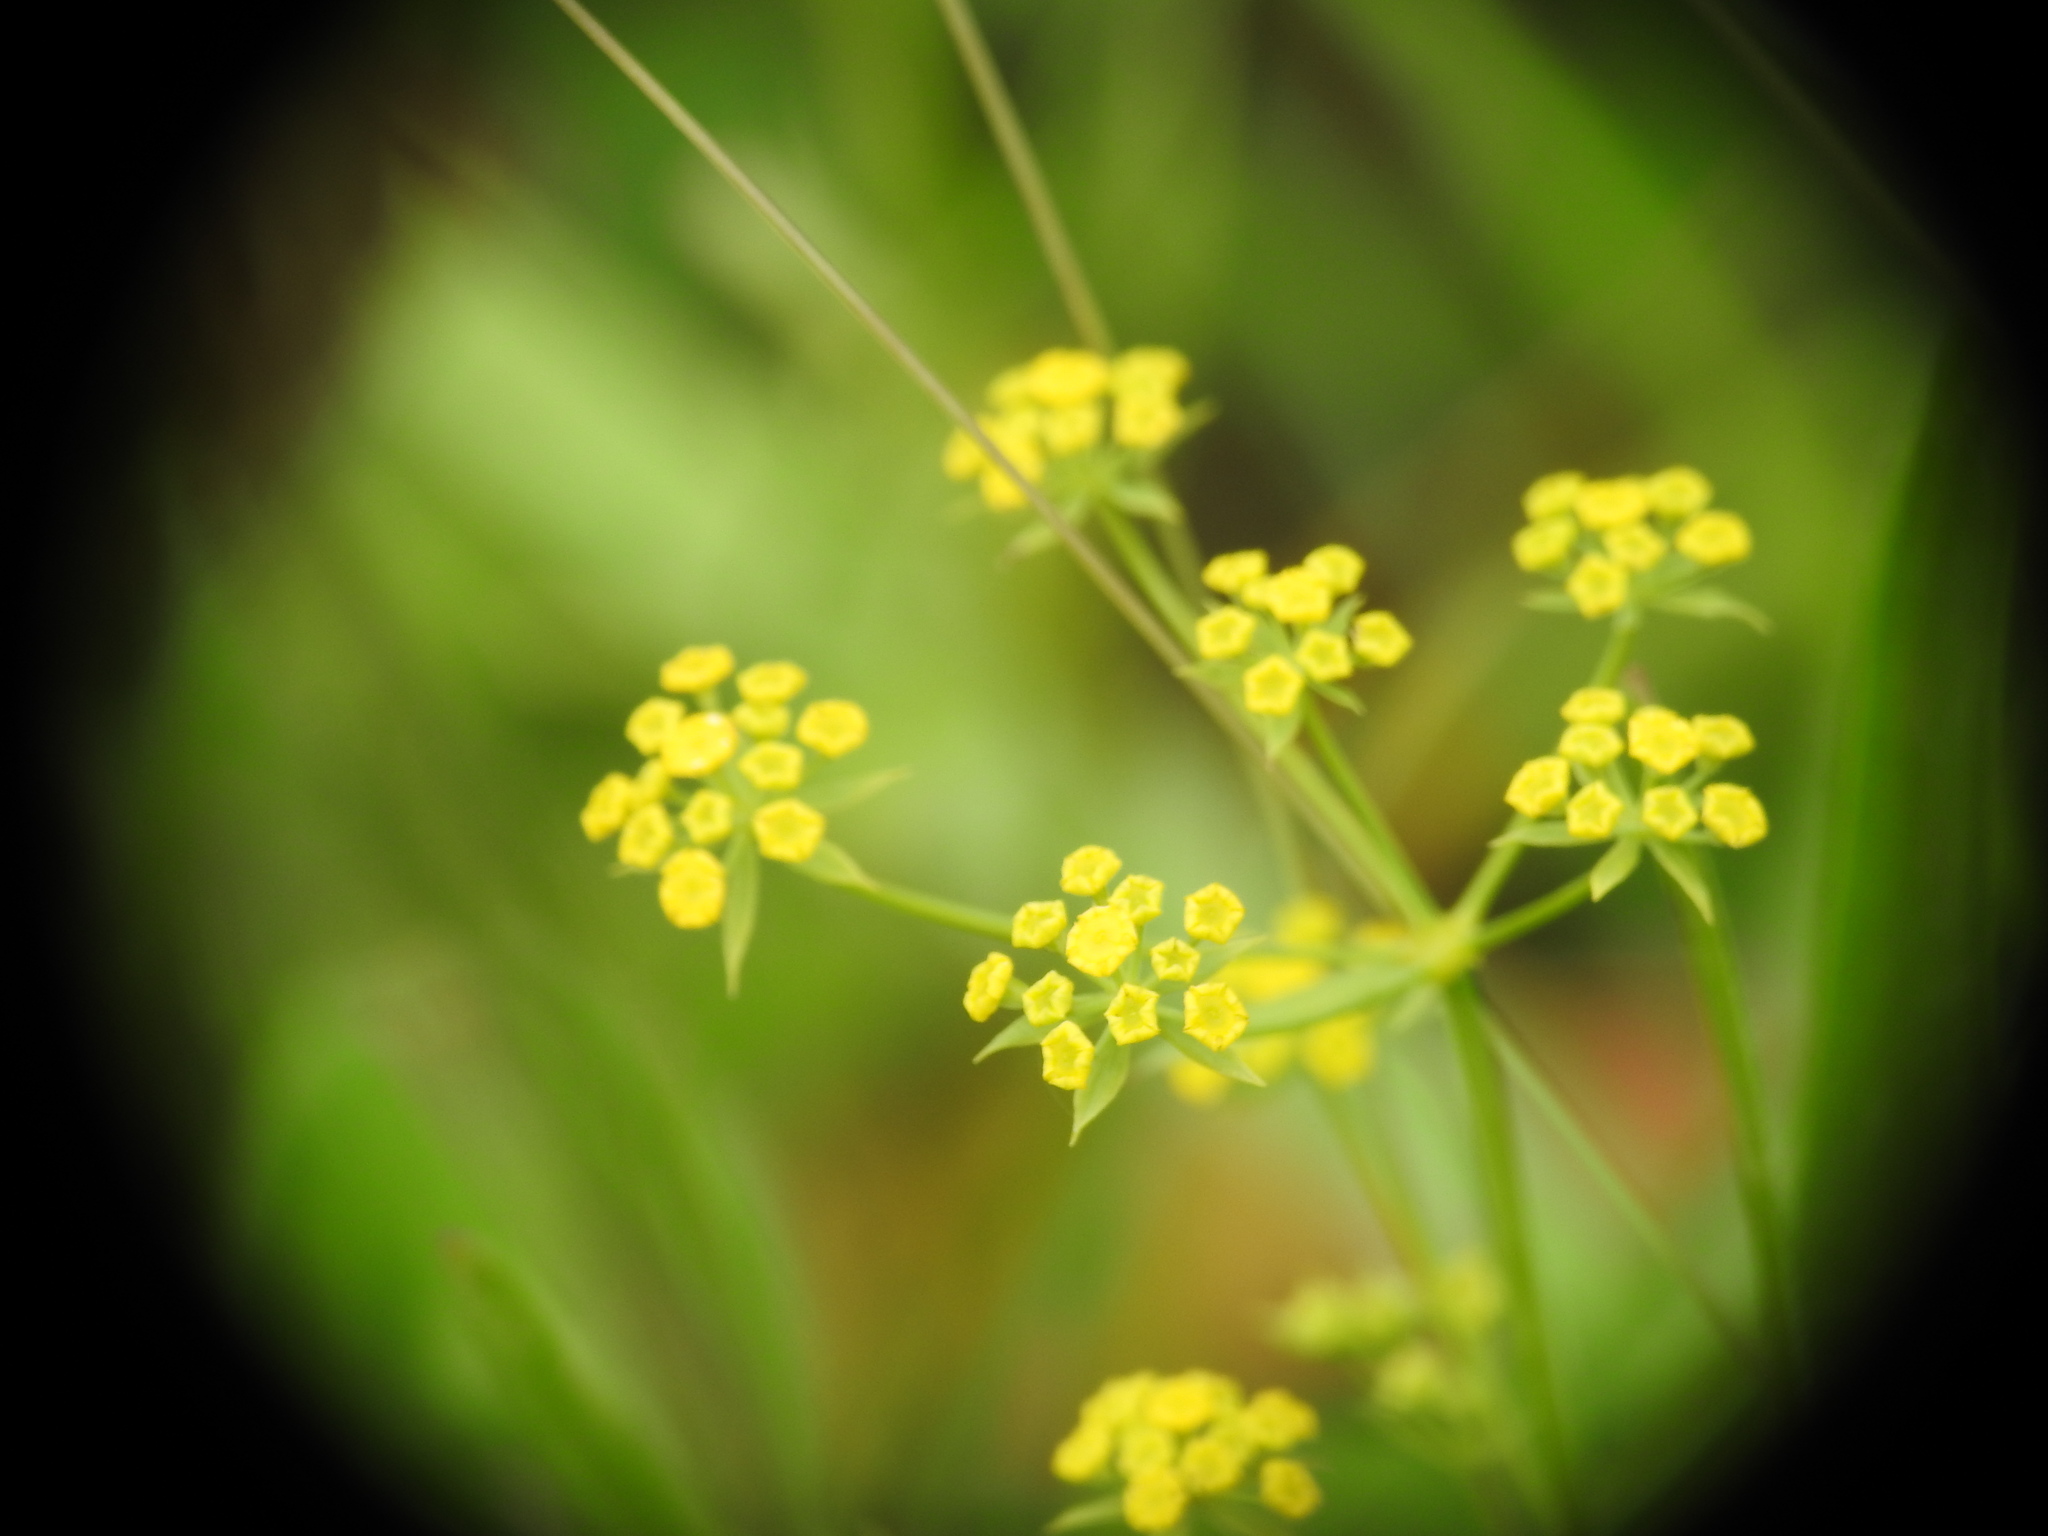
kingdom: Plantae
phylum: Tracheophyta
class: Magnoliopsida
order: Apiales
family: Apiaceae
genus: Bupleurum
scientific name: Bupleurum falcatum
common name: Sickle-leaved hare's-ear
